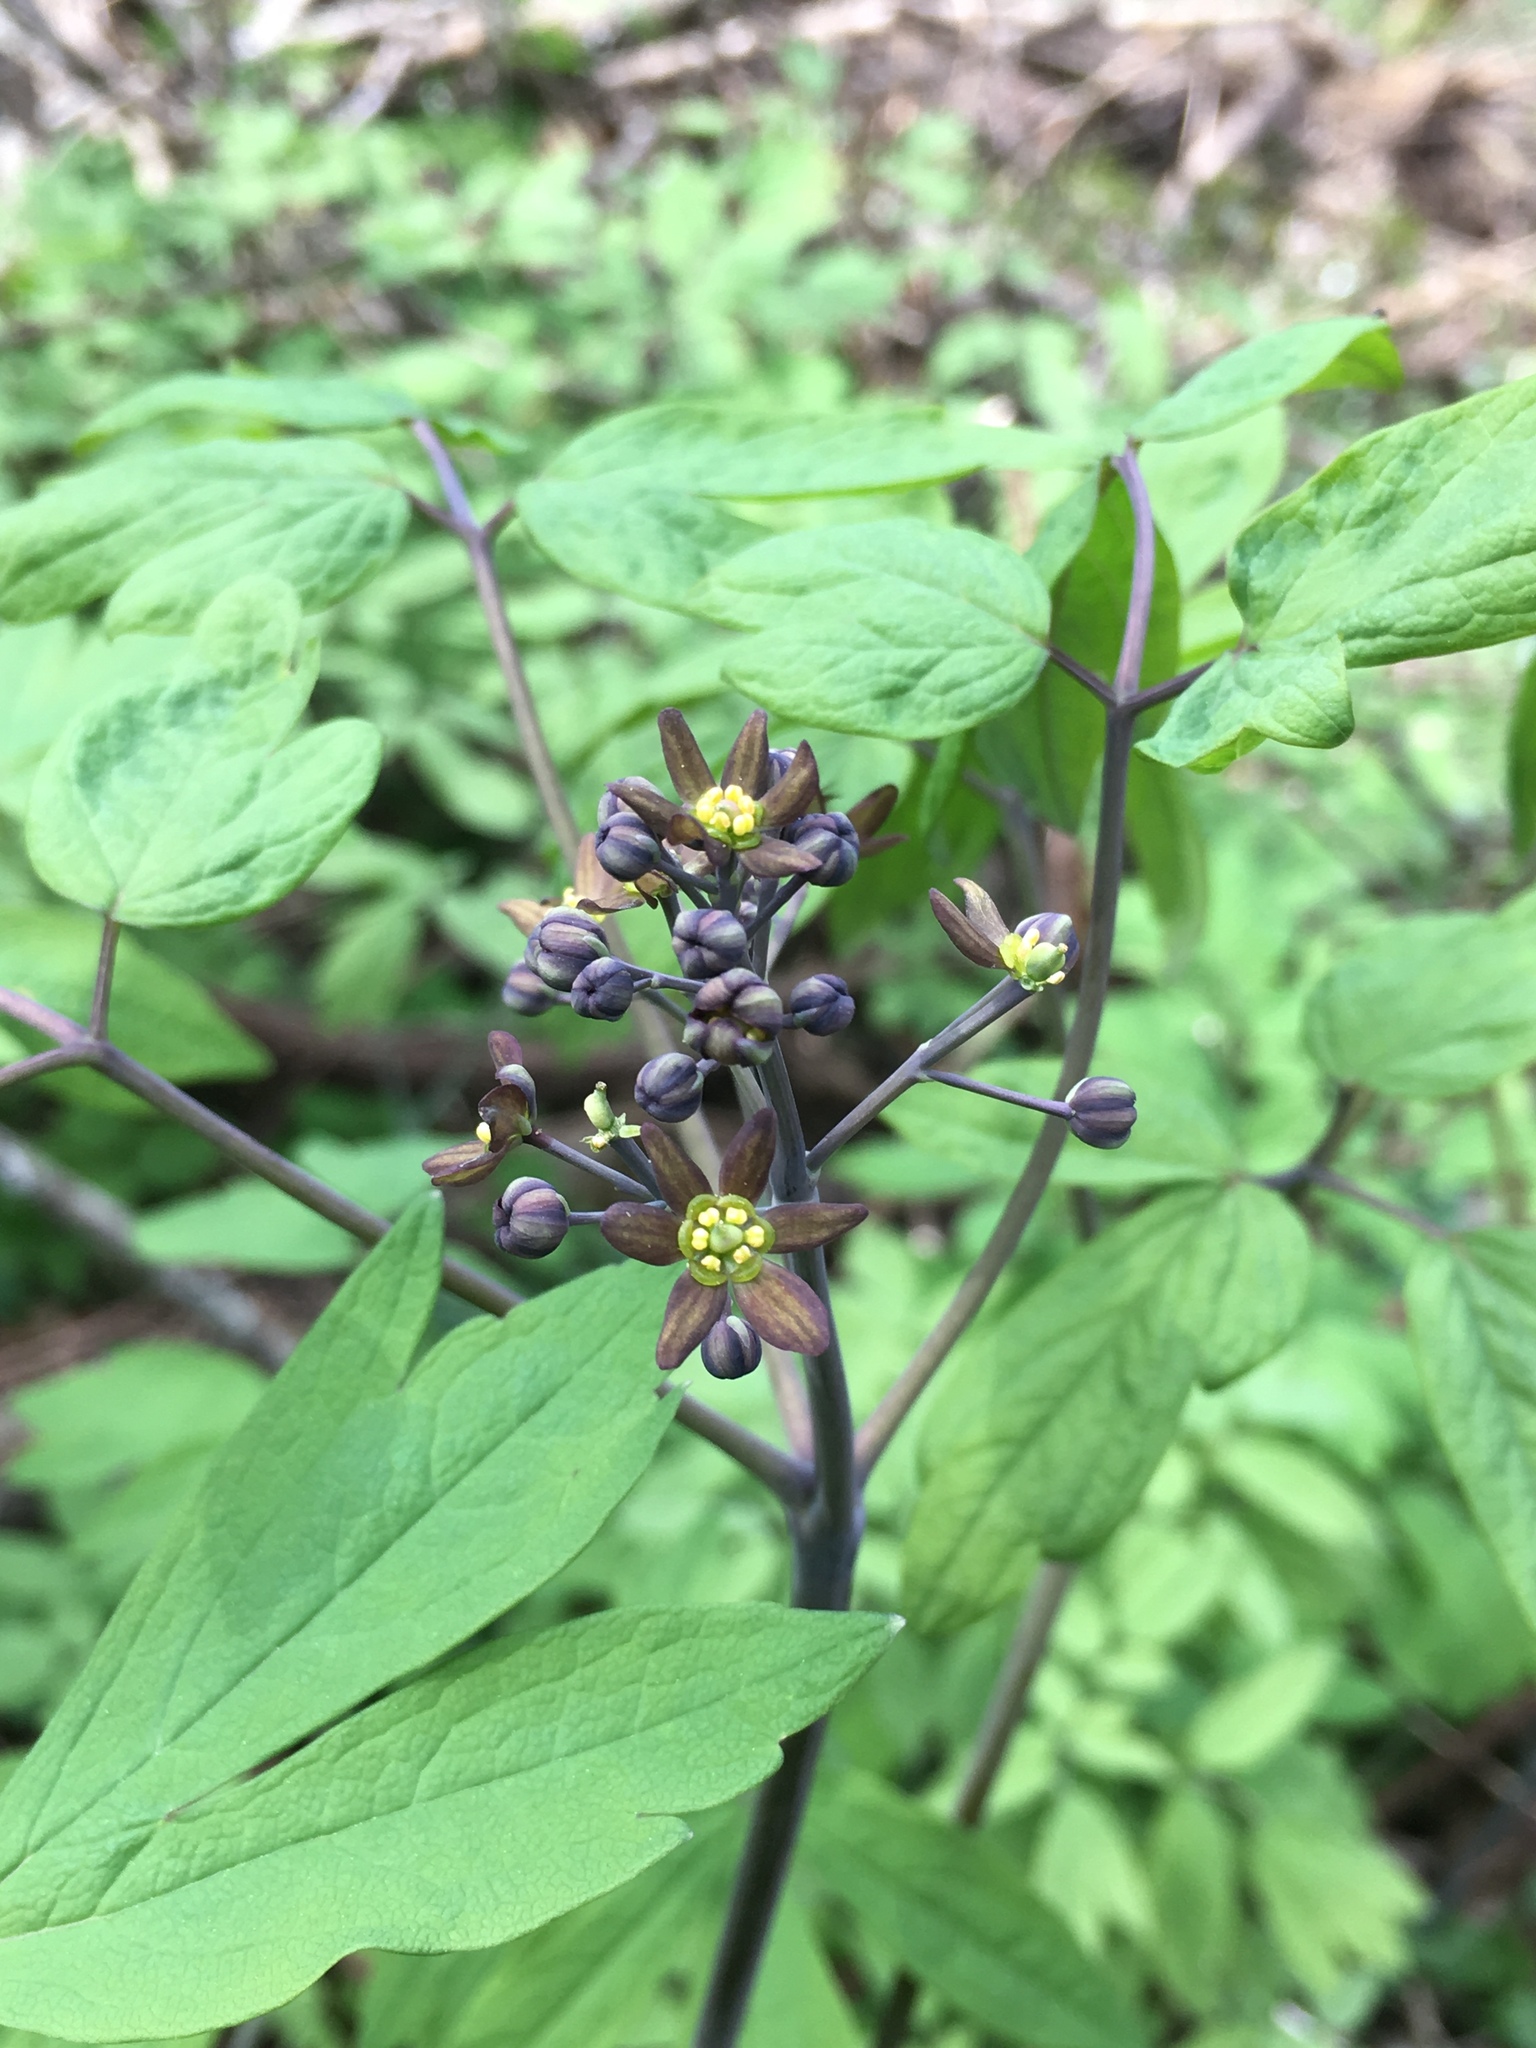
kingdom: Plantae
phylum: Tracheophyta
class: Magnoliopsida
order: Ranunculales
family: Berberidaceae
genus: Caulophyllum
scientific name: Caulophyllum thalictroides
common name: Blue cohosh
